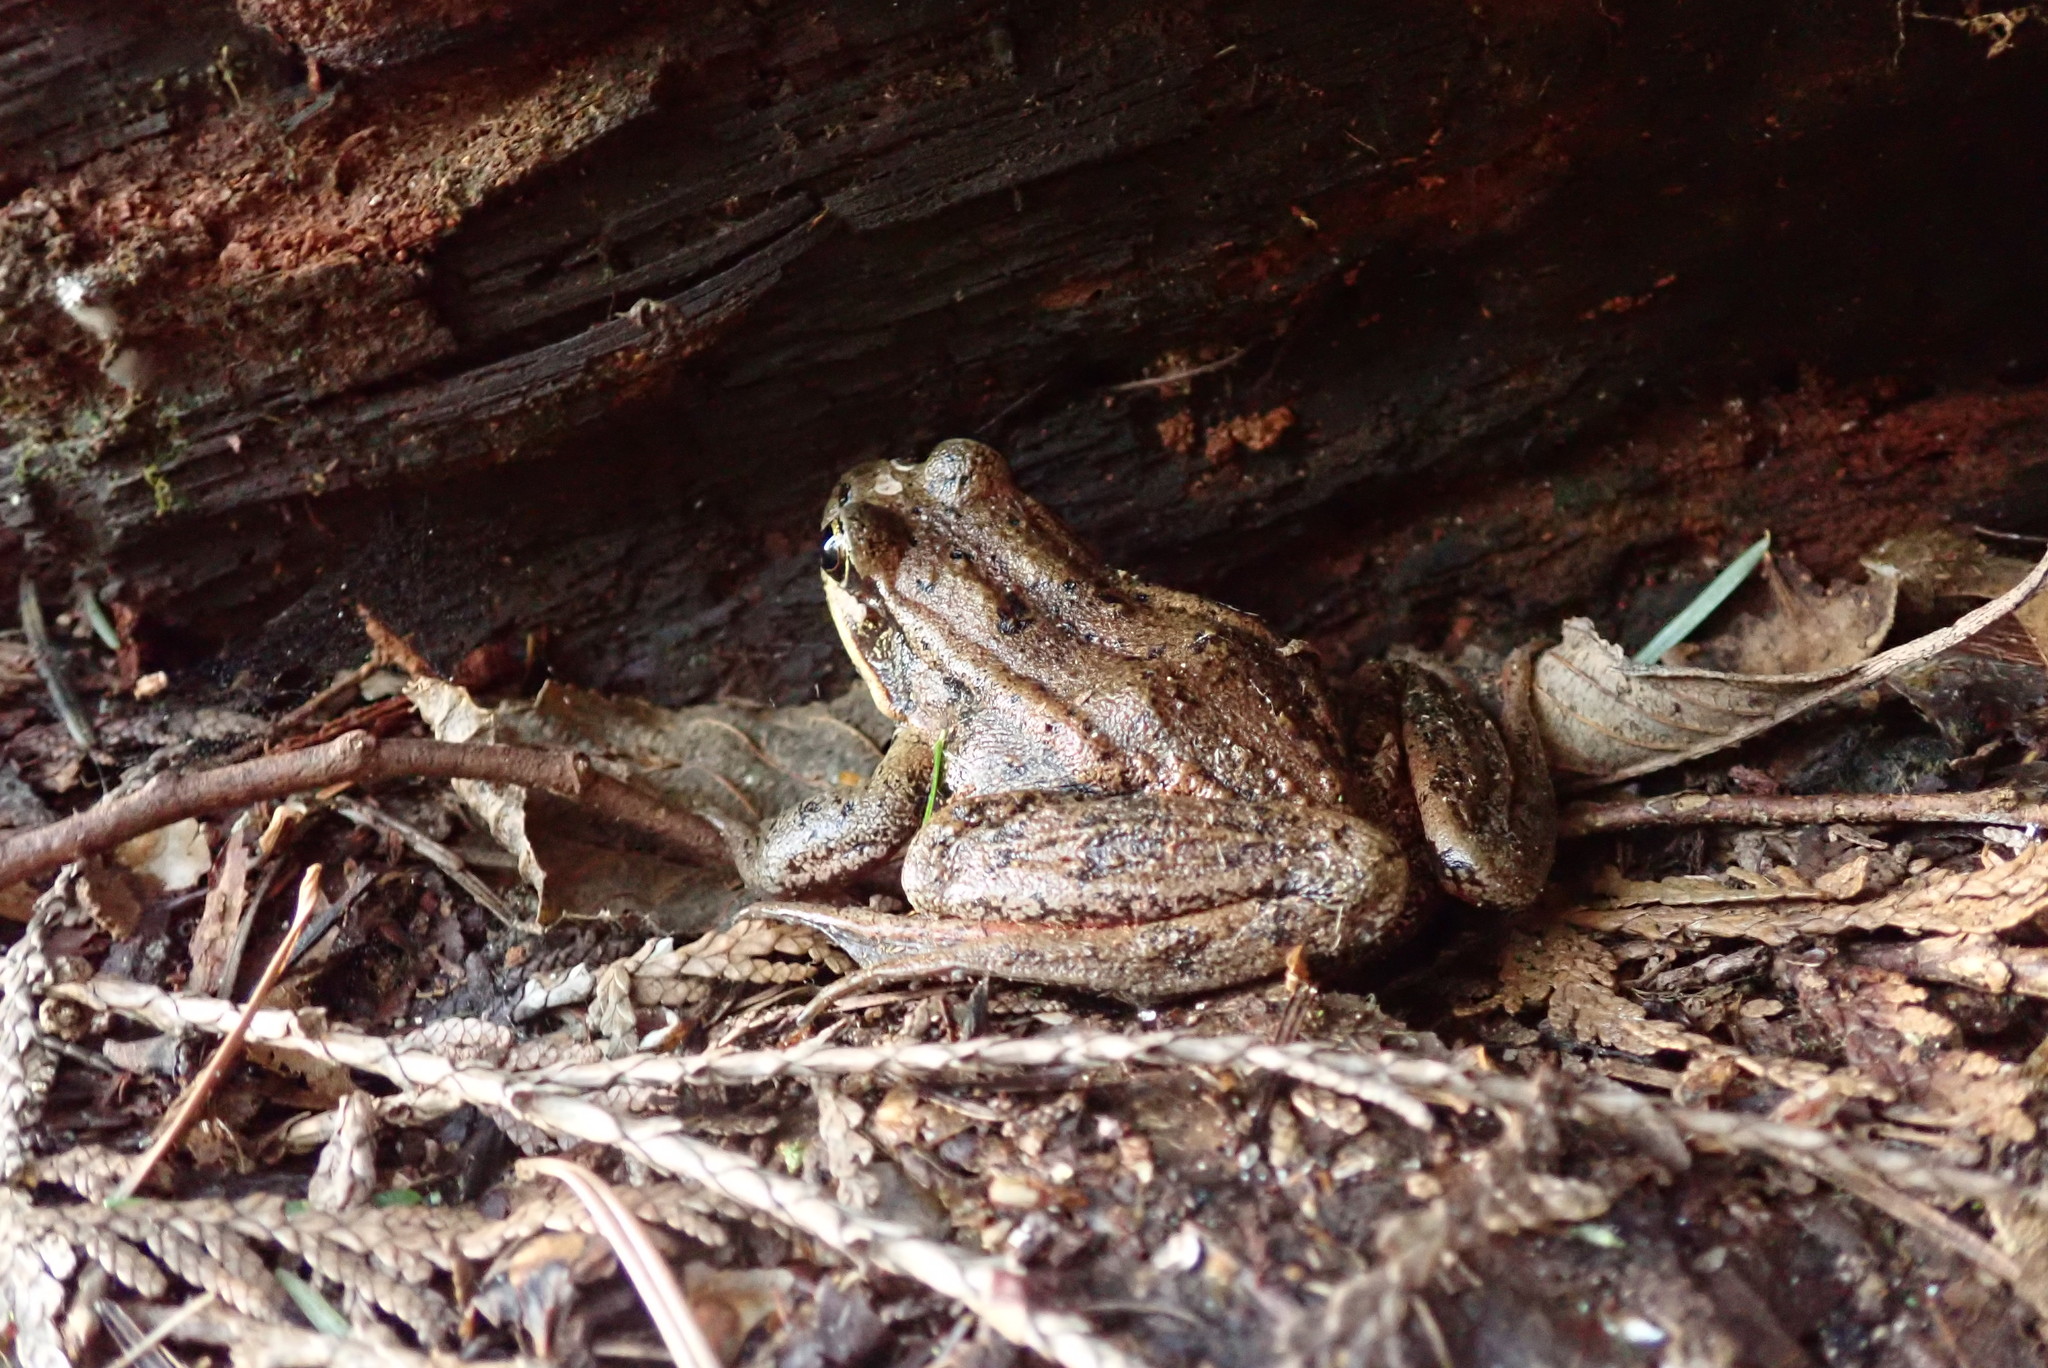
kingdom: Animalia
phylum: Chordata
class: Amphibia
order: Anura
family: Ranidae
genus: Rana
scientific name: Rana aurora
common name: Red-legged frog
